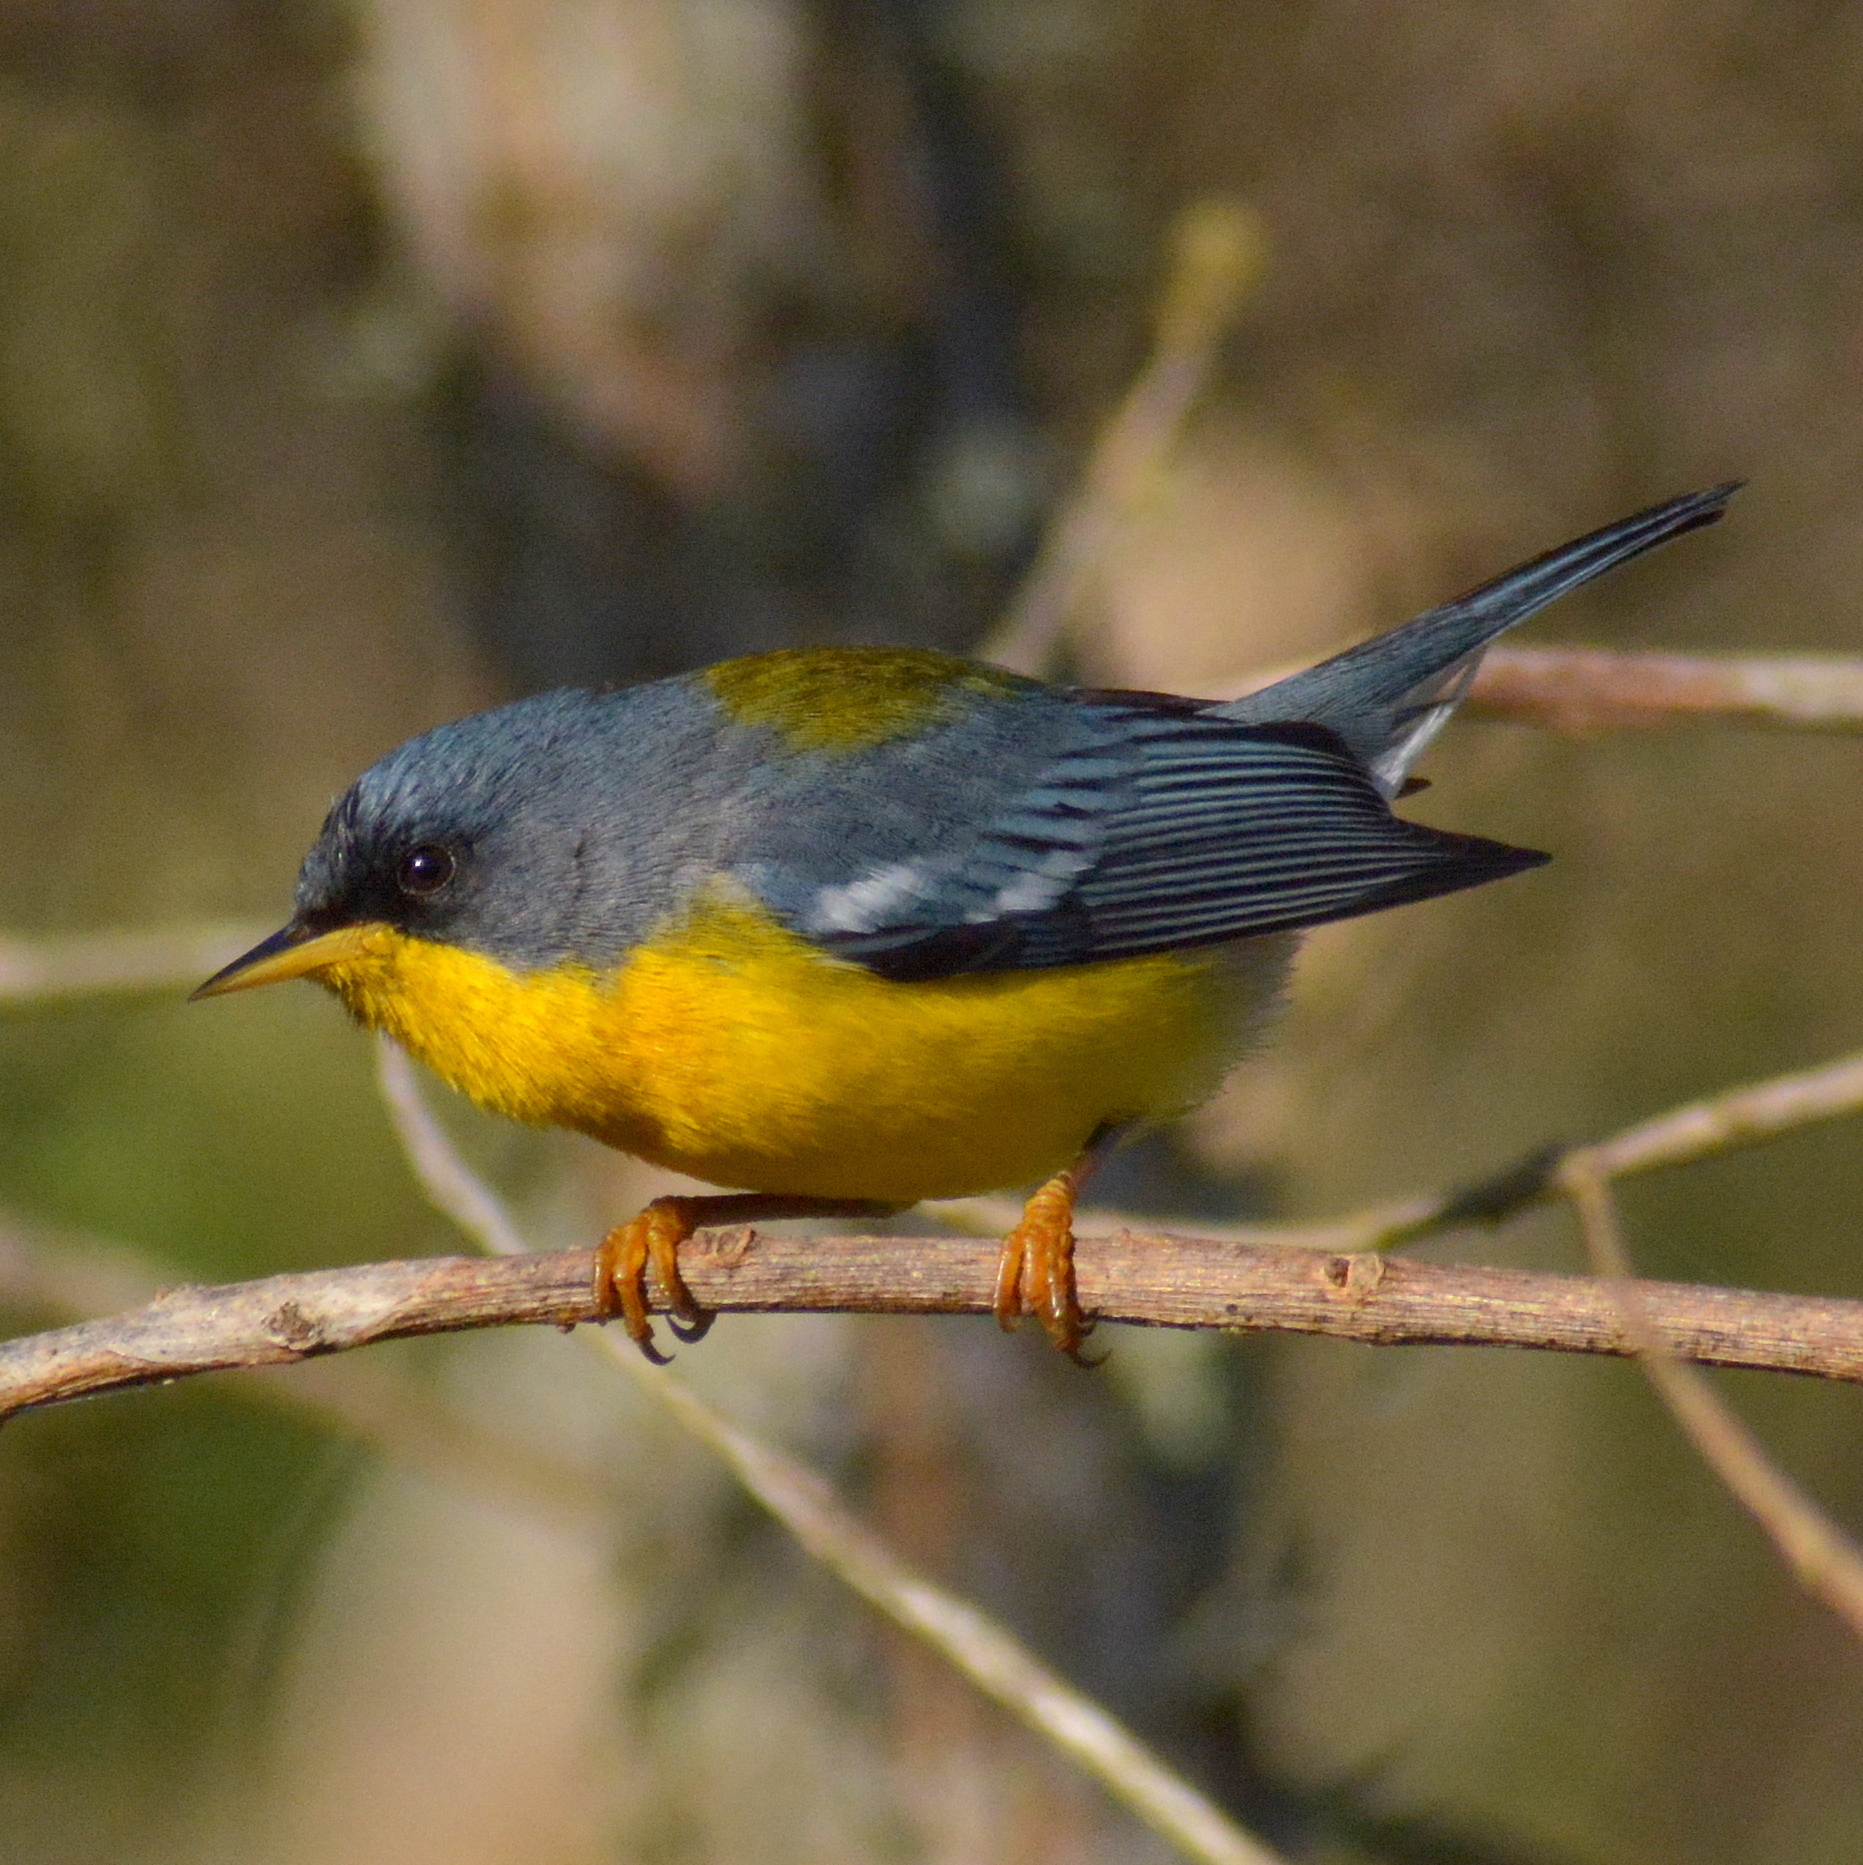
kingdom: Animalia
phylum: Chordata
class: Aves
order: Passeriformes
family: Parulidae
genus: Setophaga
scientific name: Setophaga pitiayumi
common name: Tropical parula
